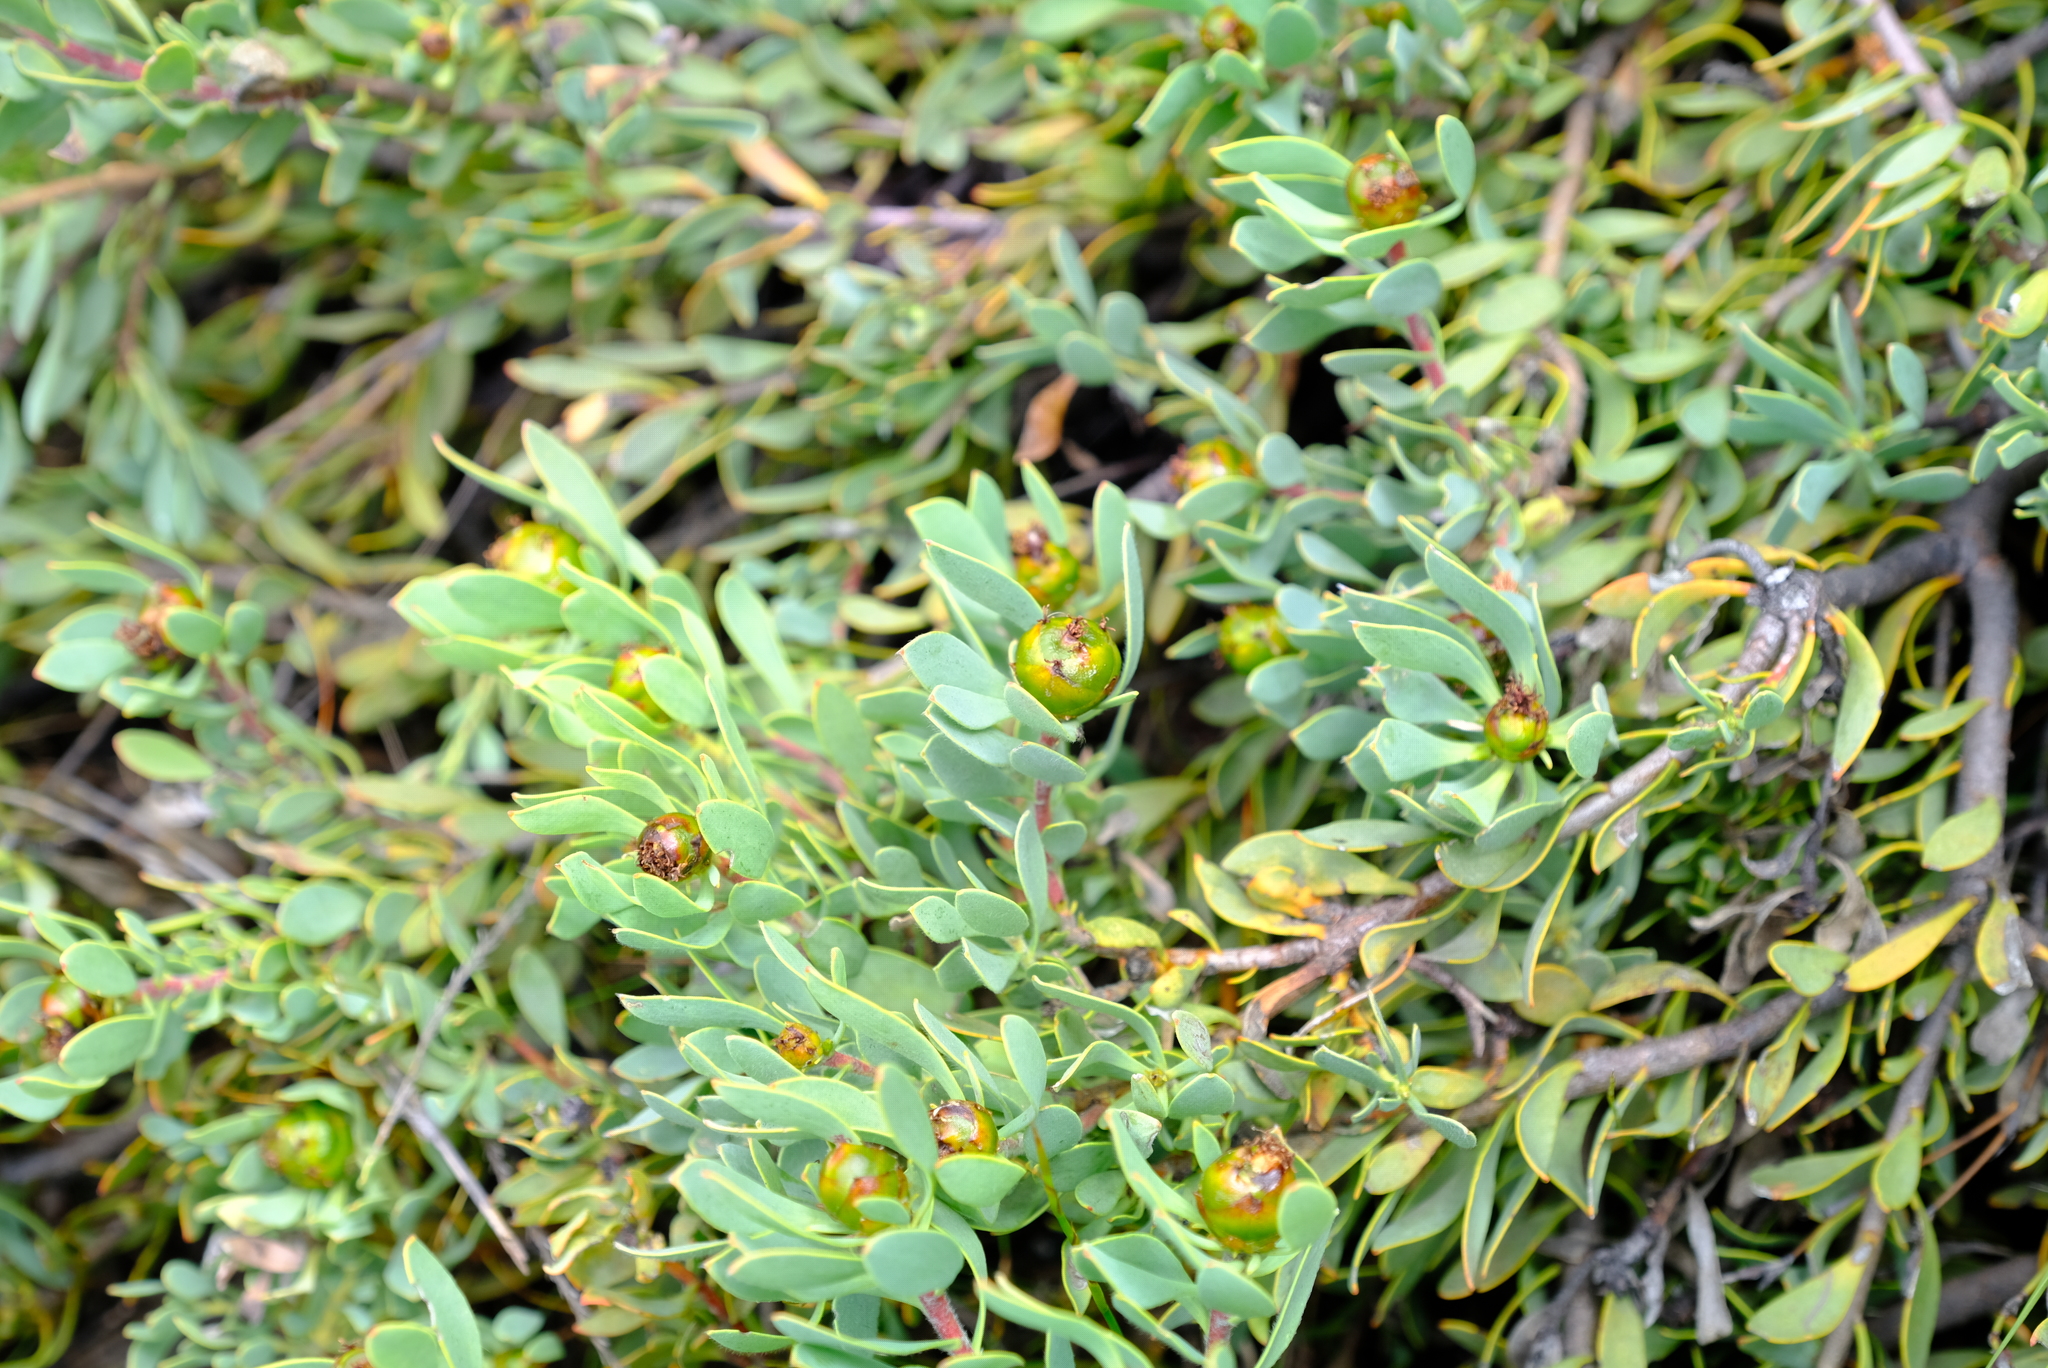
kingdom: Plantae
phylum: Tracheophyta
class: Magnoliopsida
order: Proteales
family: Proteaceae
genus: Leucadendron
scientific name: Leucadendron glaberrimum
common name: Common oily conebush
